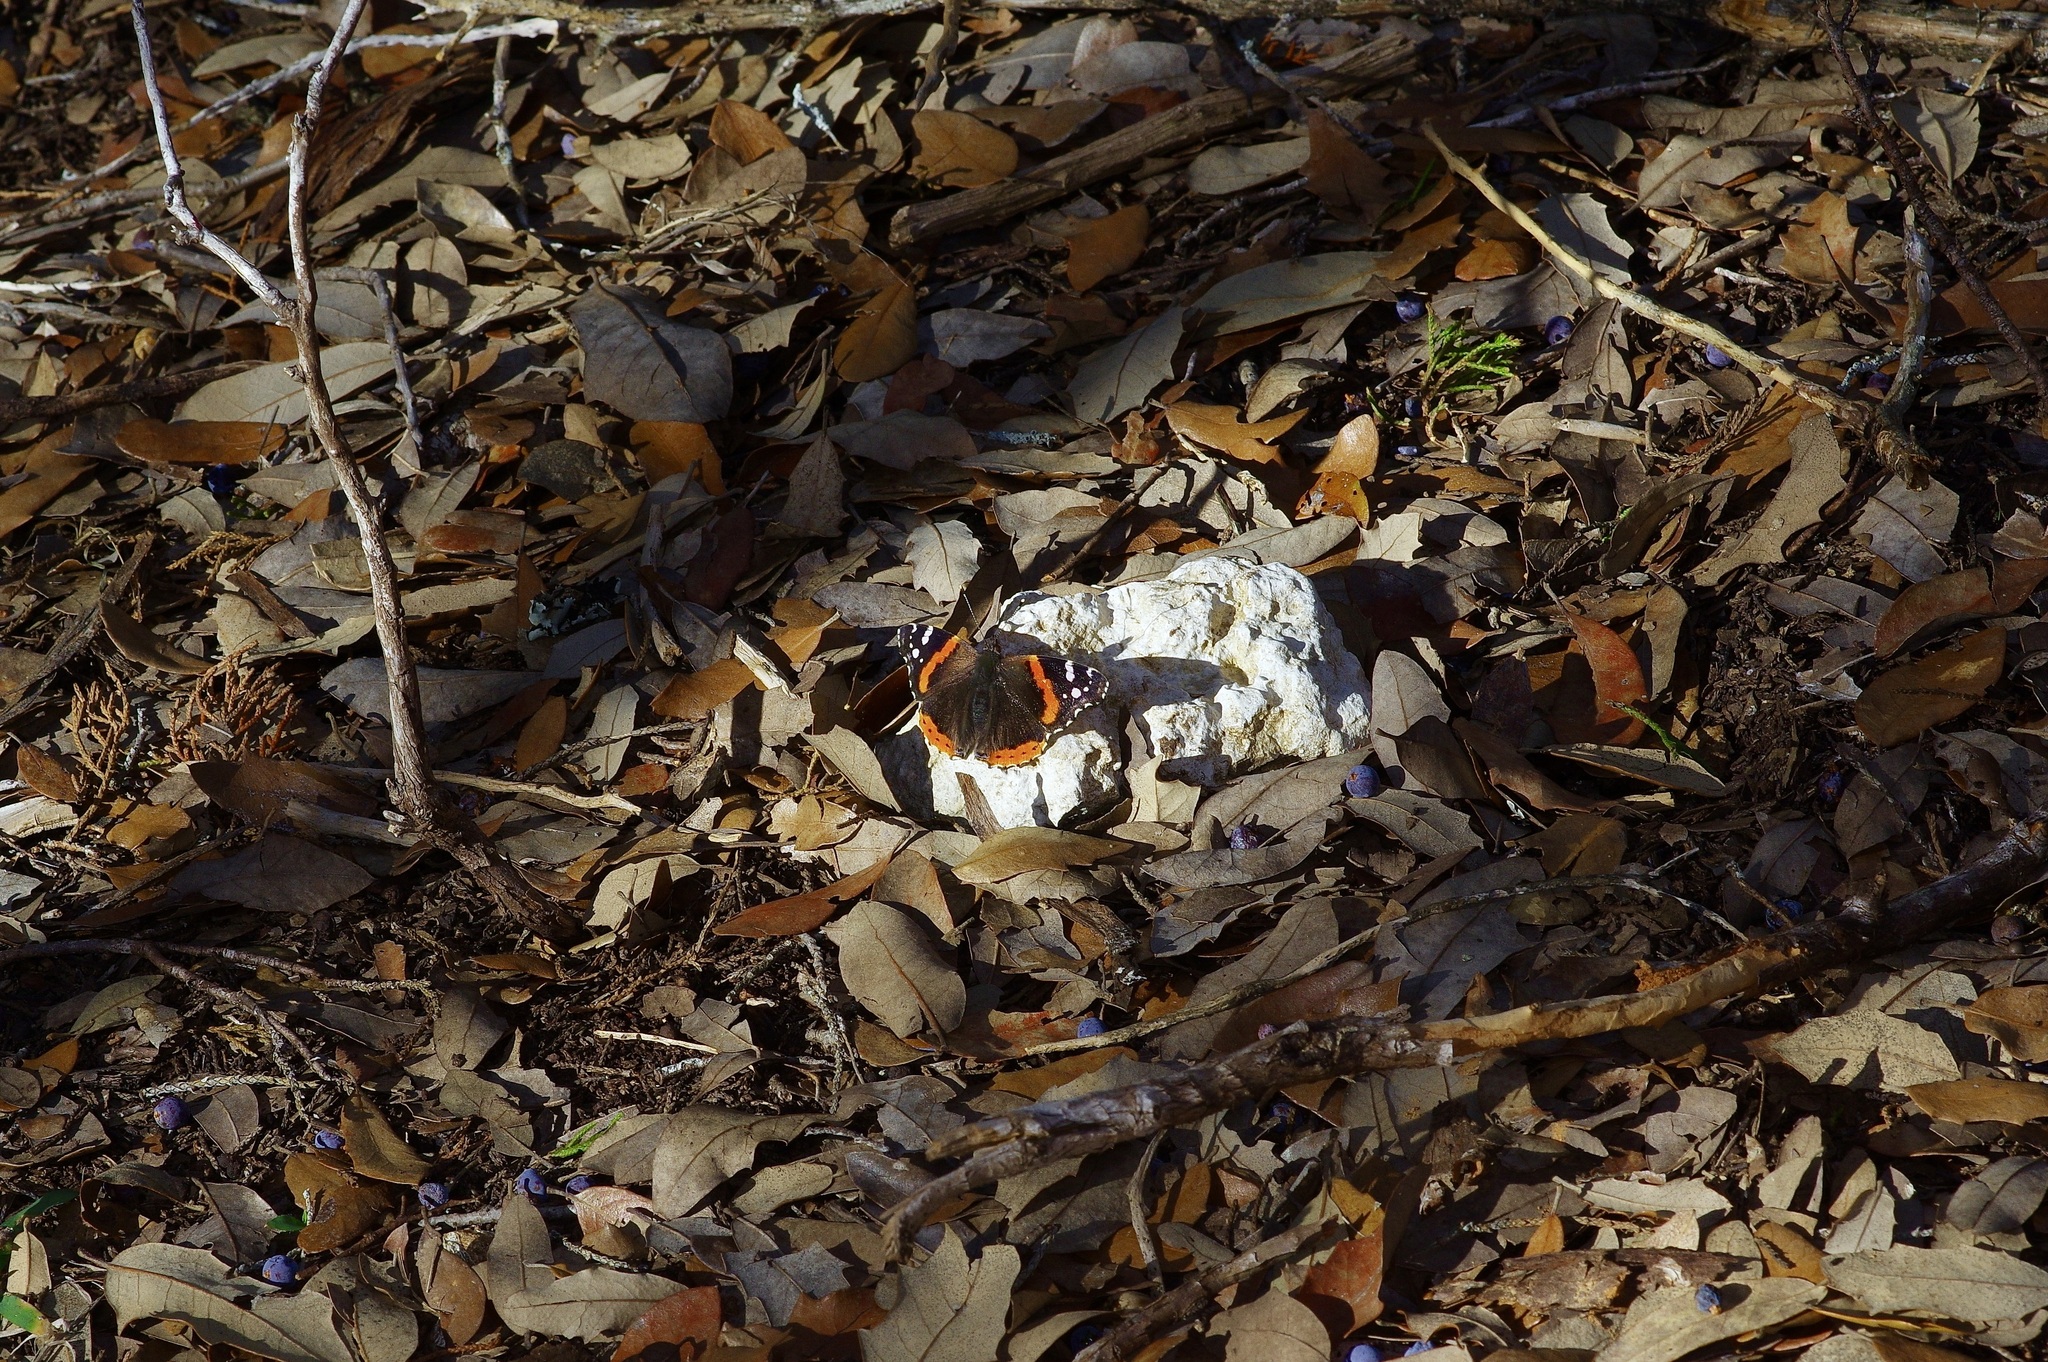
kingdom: Animalia
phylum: Arthropoda
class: Insecta
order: Lepidoptera
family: Nymphalidae
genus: Vanessa
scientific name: Vanessa atalanta
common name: Red admiral
